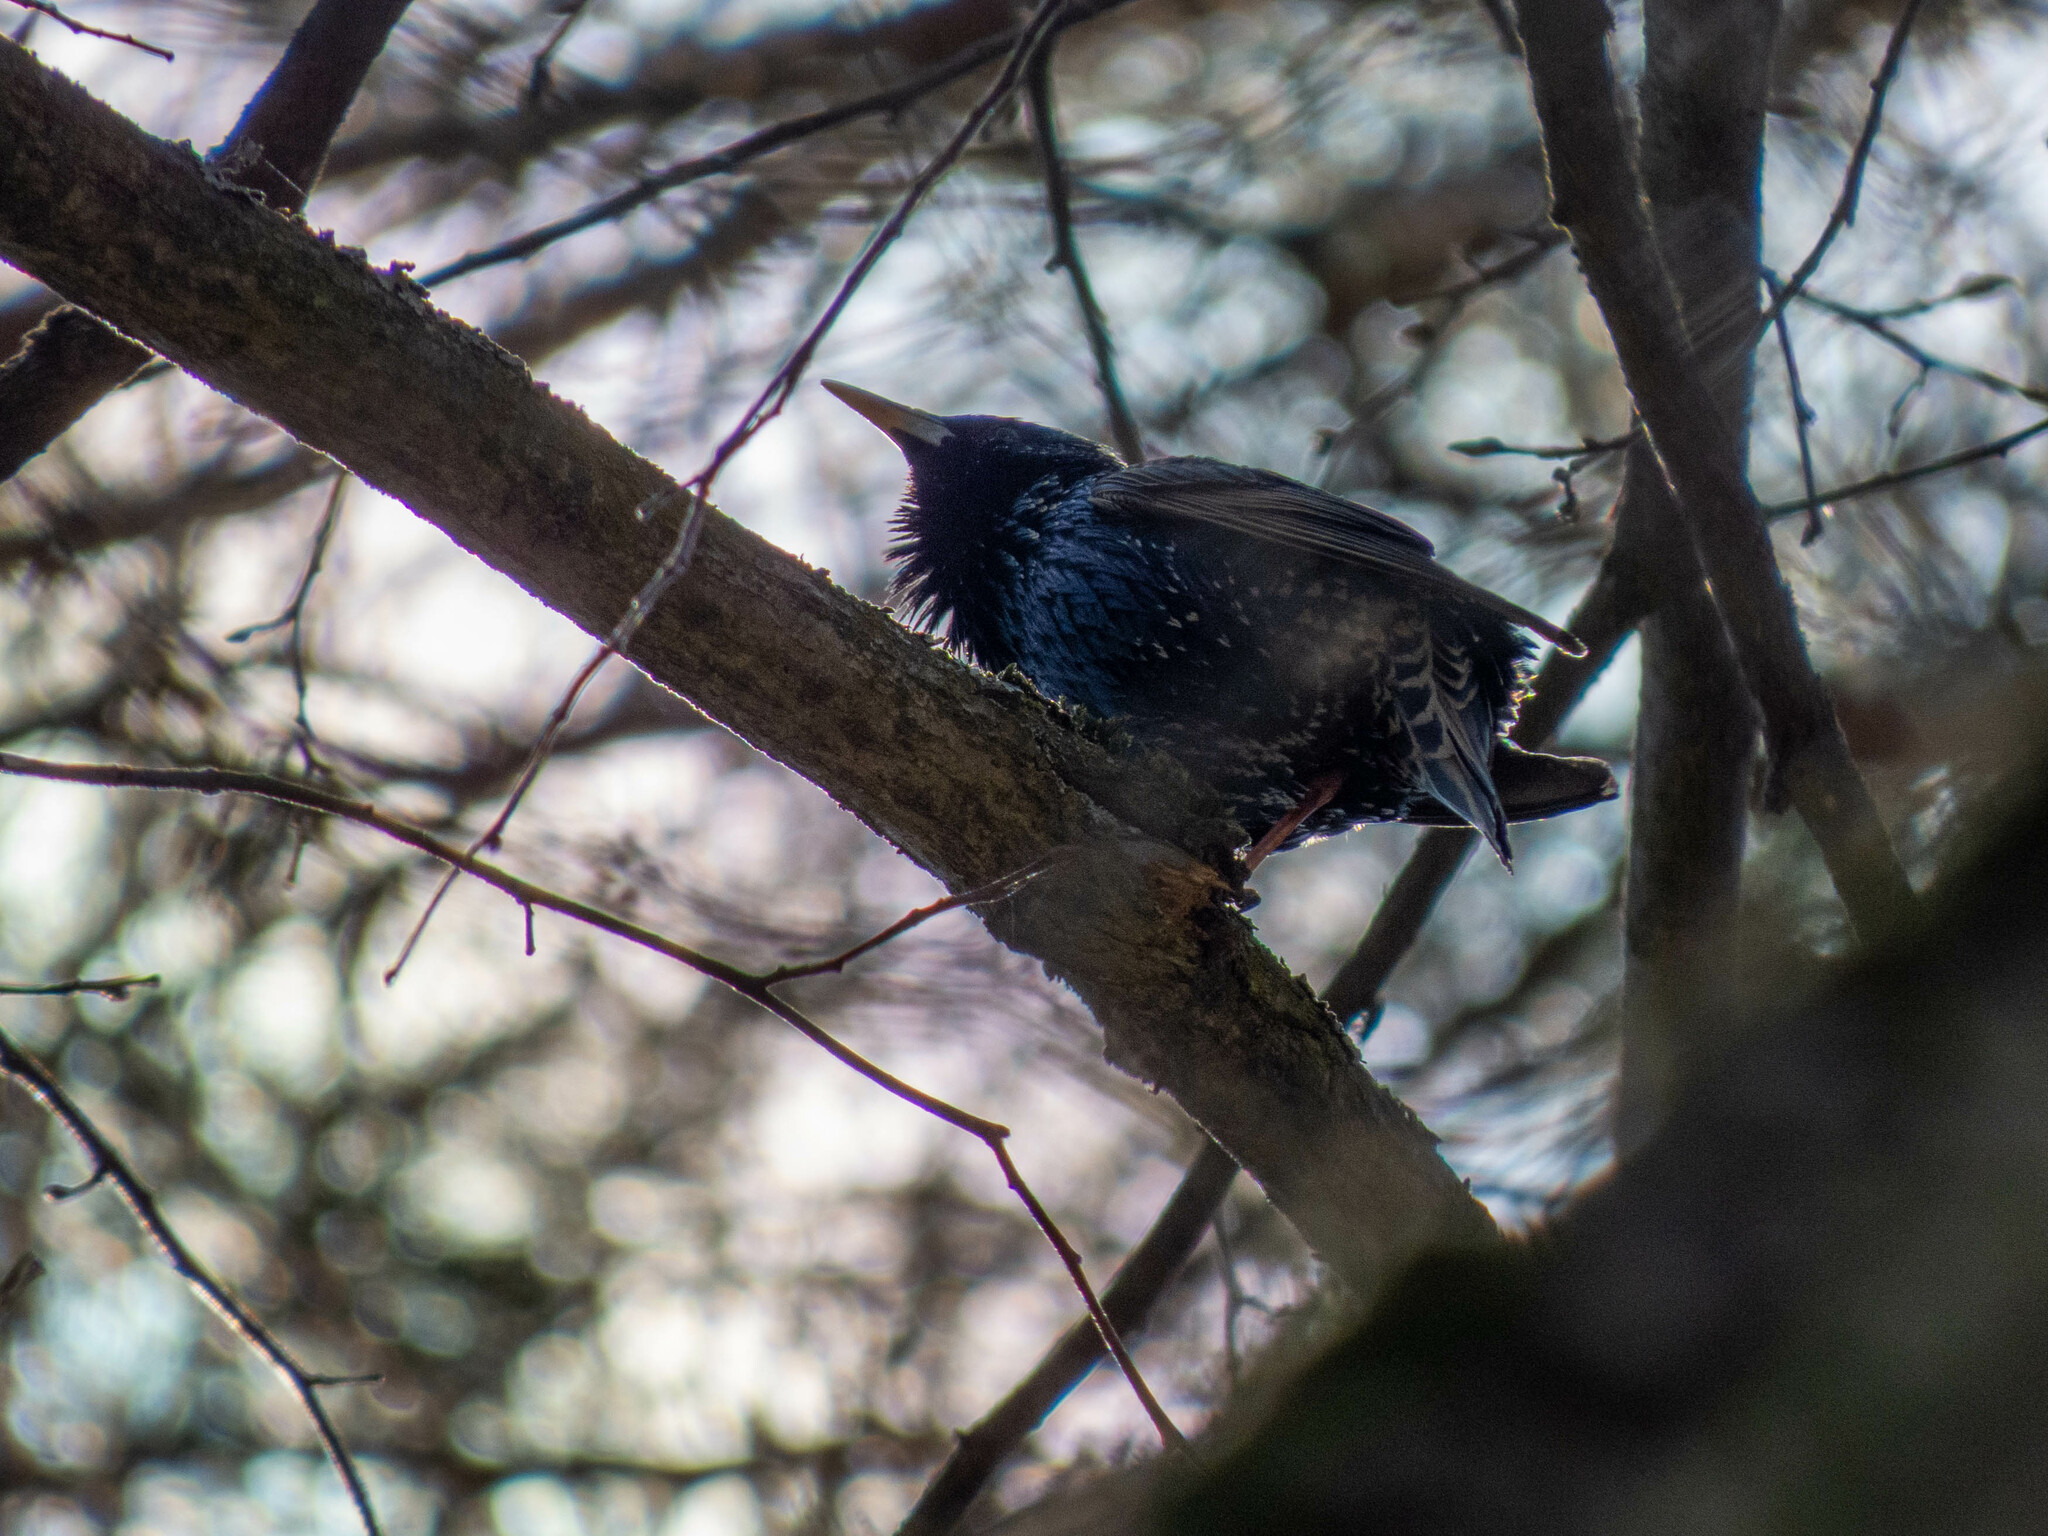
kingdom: Animalia
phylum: Chordata
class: Aves
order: Passeriformes
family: Sturnidae
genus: Sturnus
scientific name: Sturnus vulgaris
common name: Common starling
